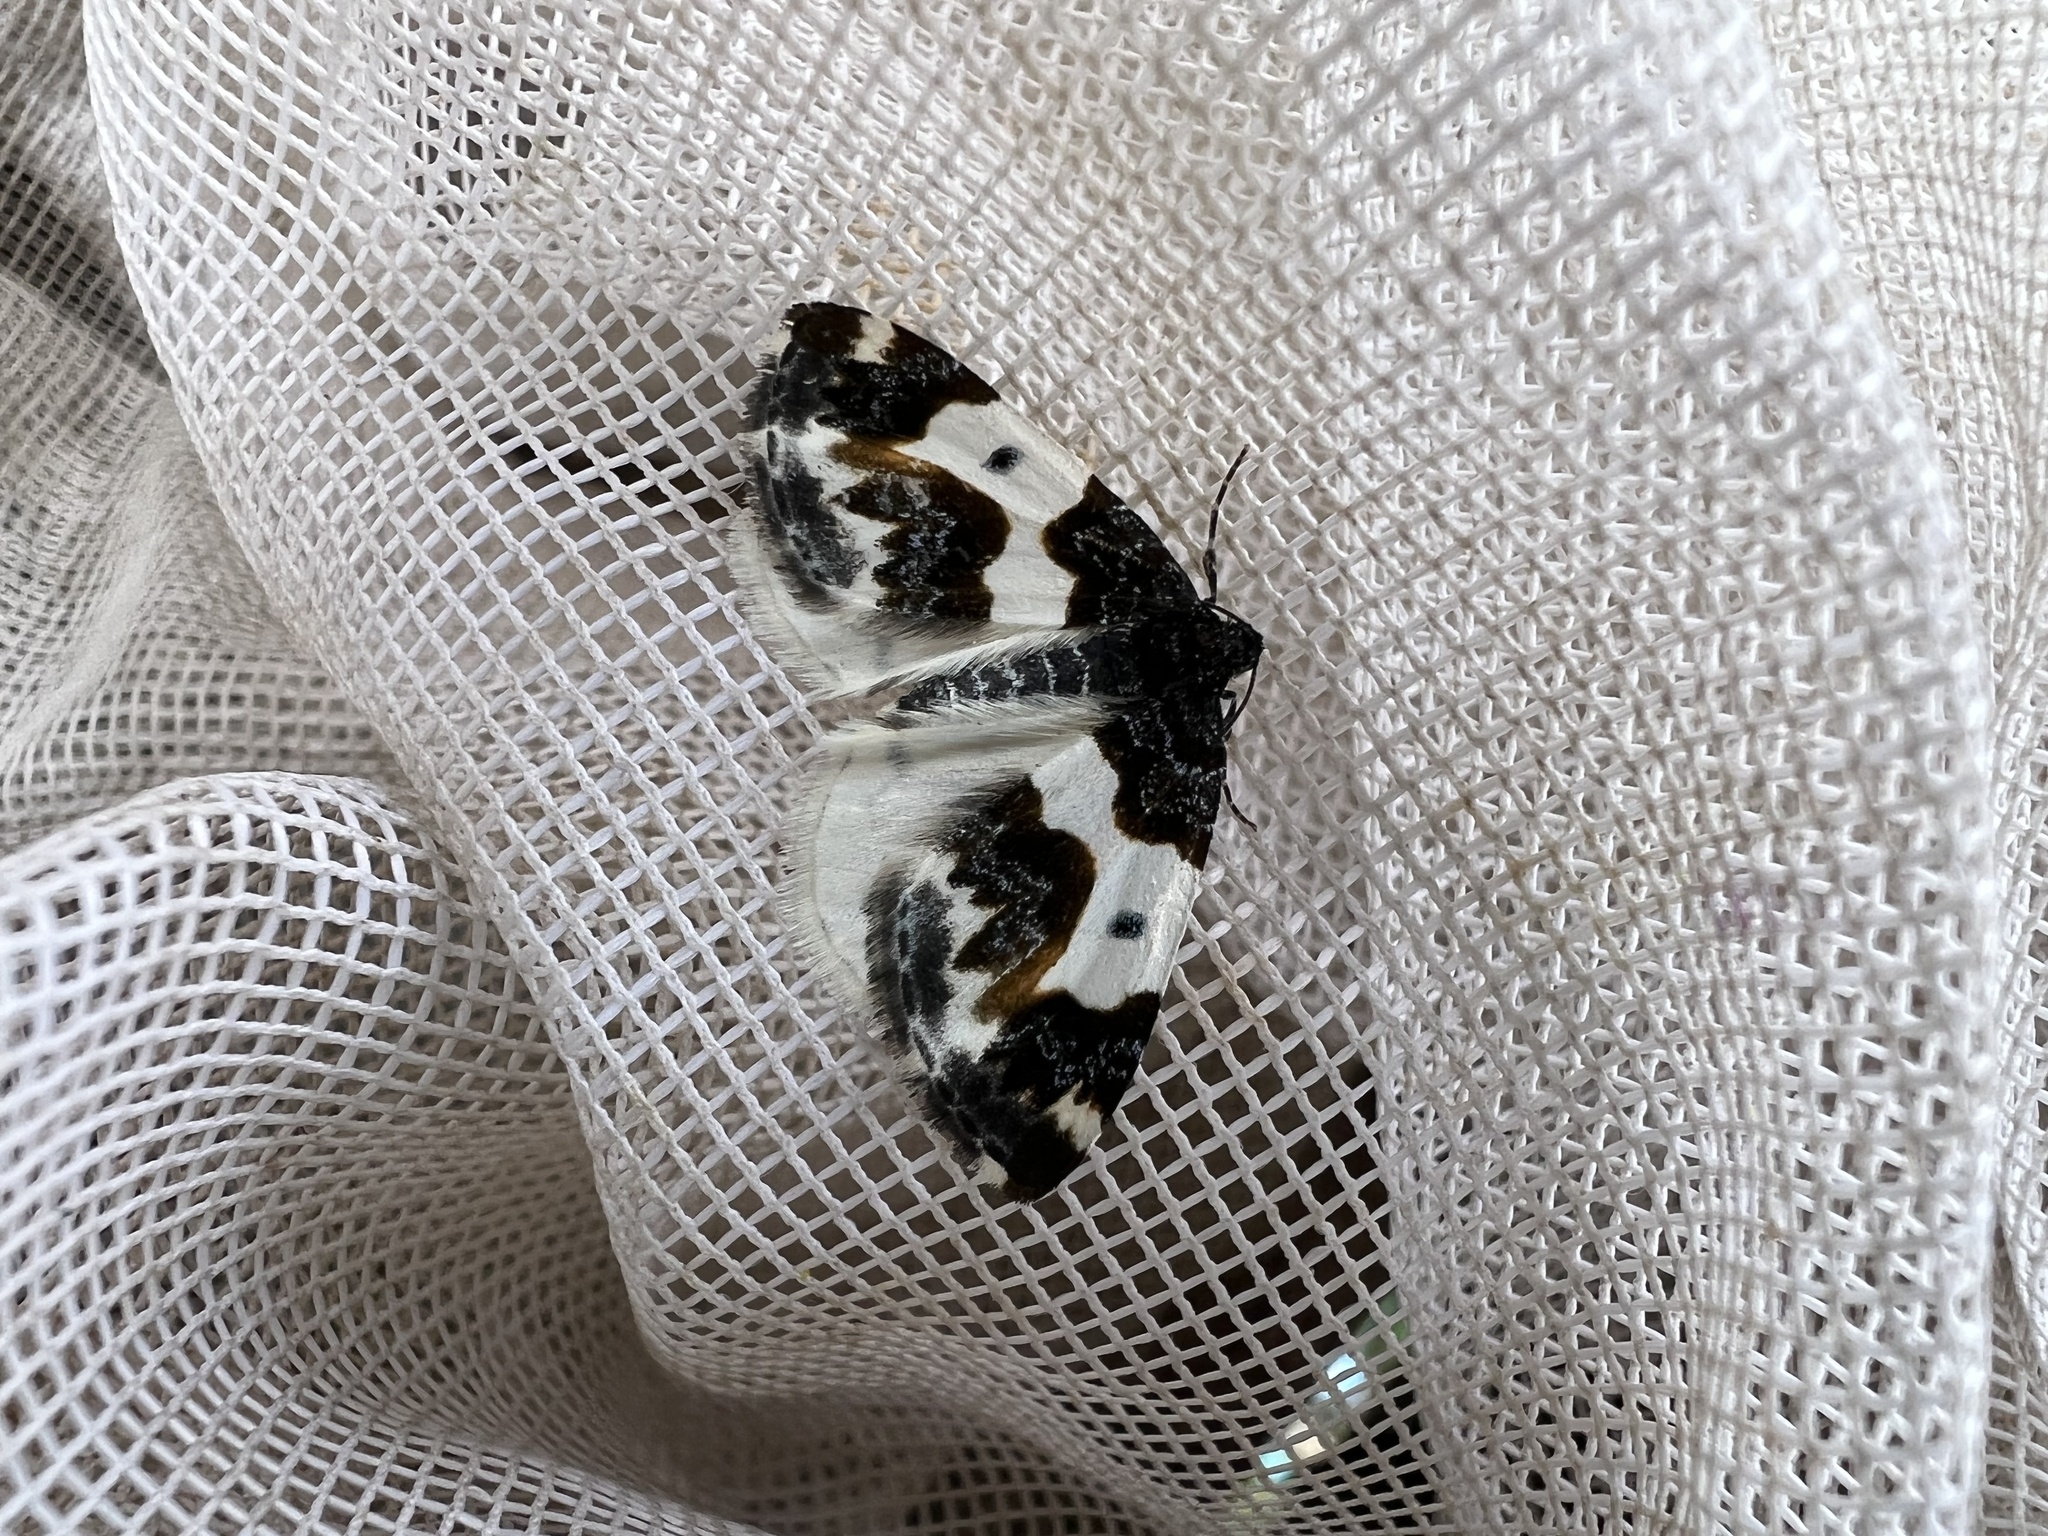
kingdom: Animalia
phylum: Arthropoda
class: Insecta
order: Lepidoptera
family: Geometridae
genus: Mesoleuca
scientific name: Mesoleuca gratulata
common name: Half-white carpet moth
